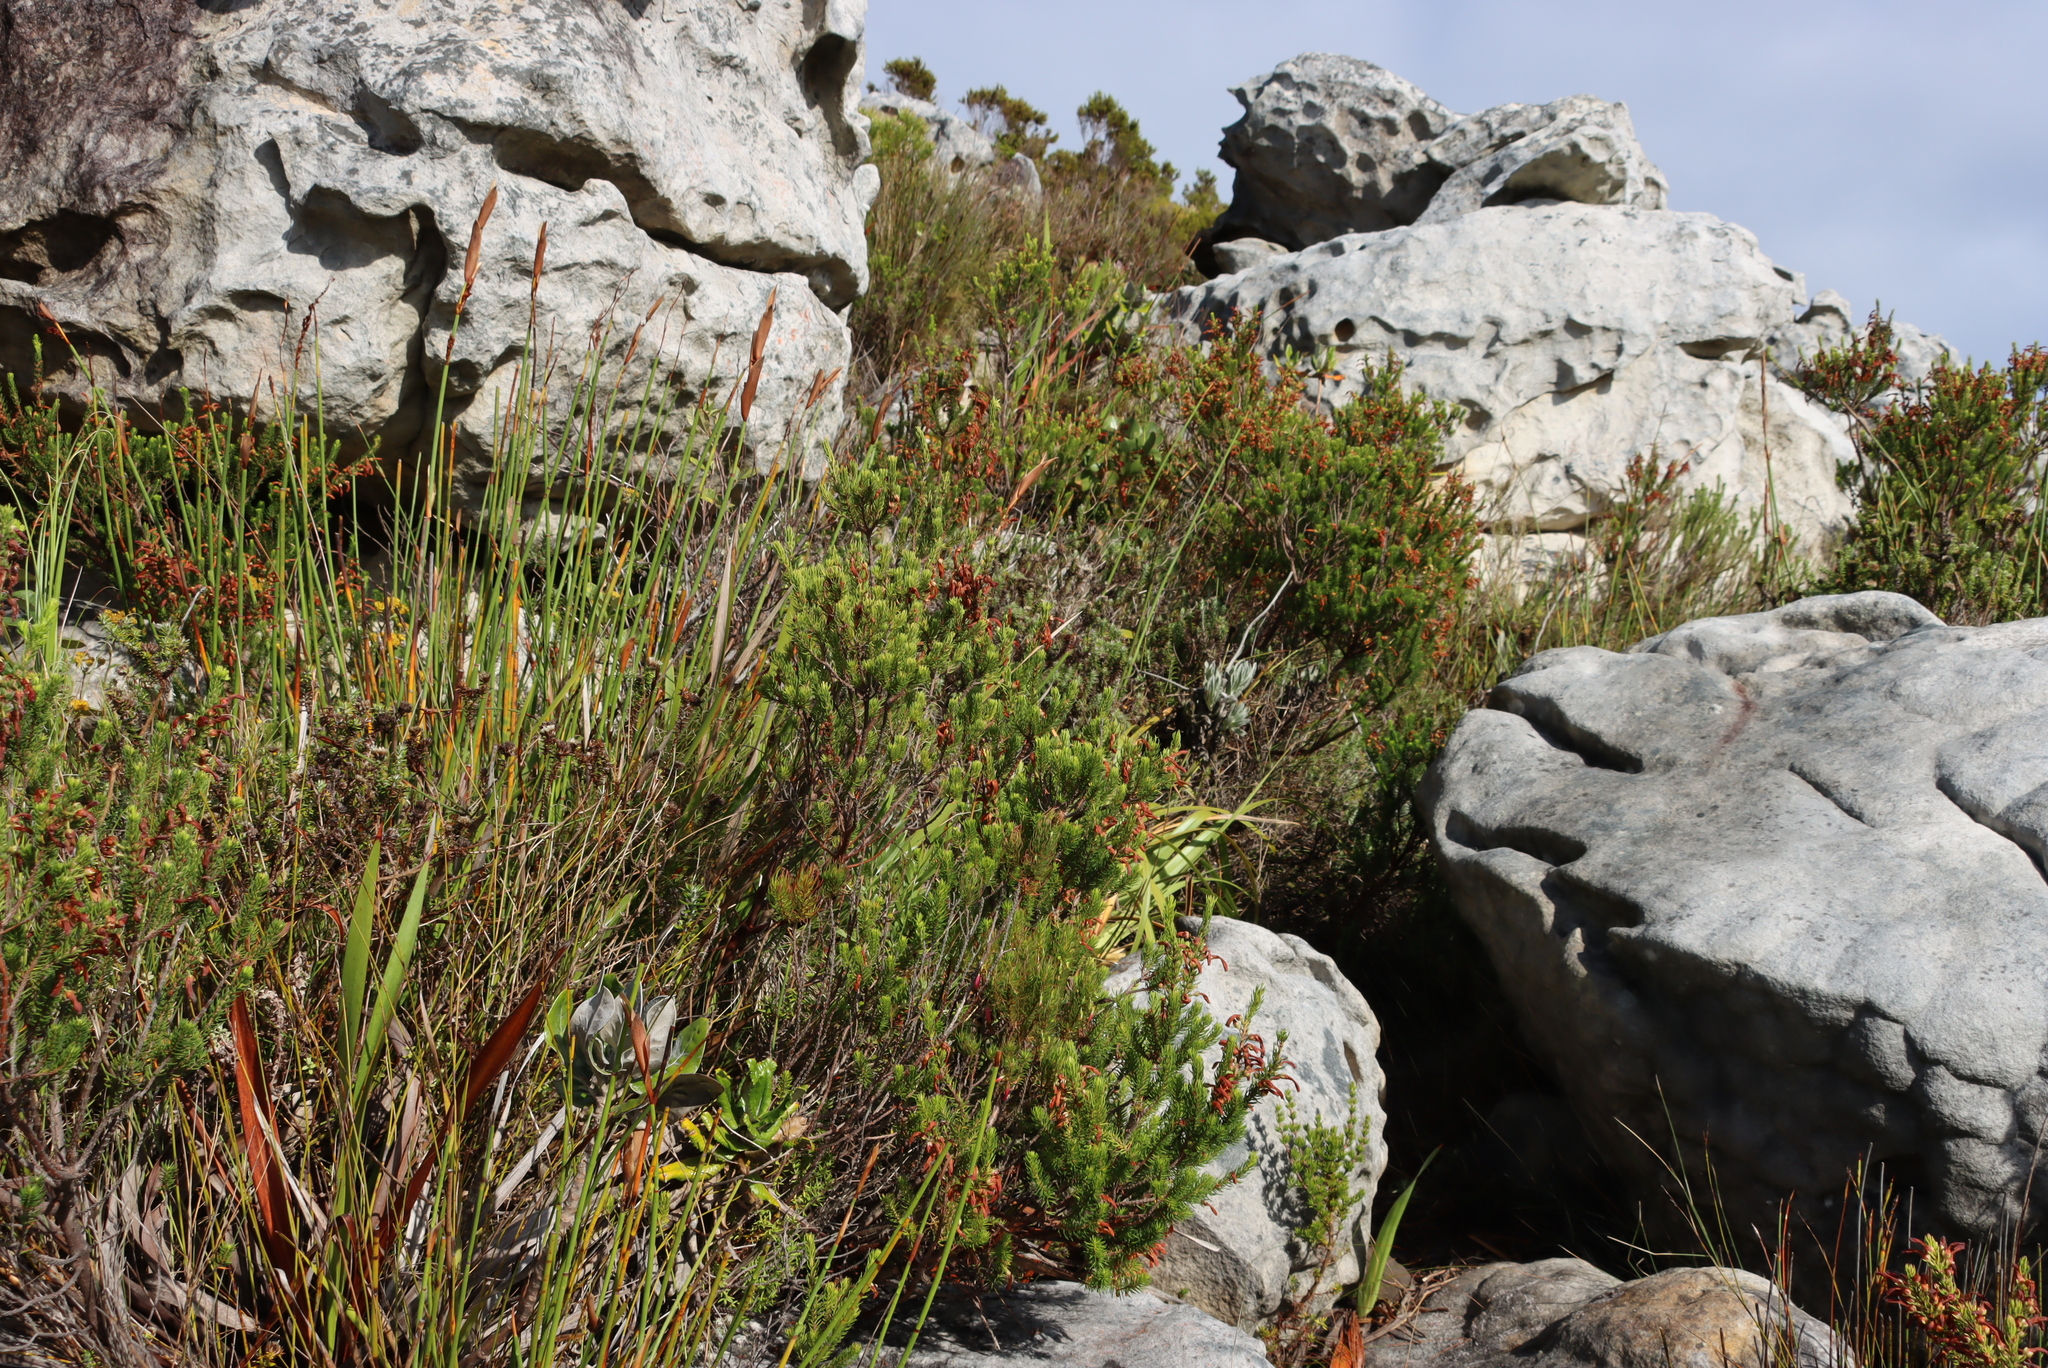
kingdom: Plantae
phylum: Tracheophyta
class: Magnoliopsida
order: Ericales
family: Ericaceae
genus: Erica
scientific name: Erica mammosa
